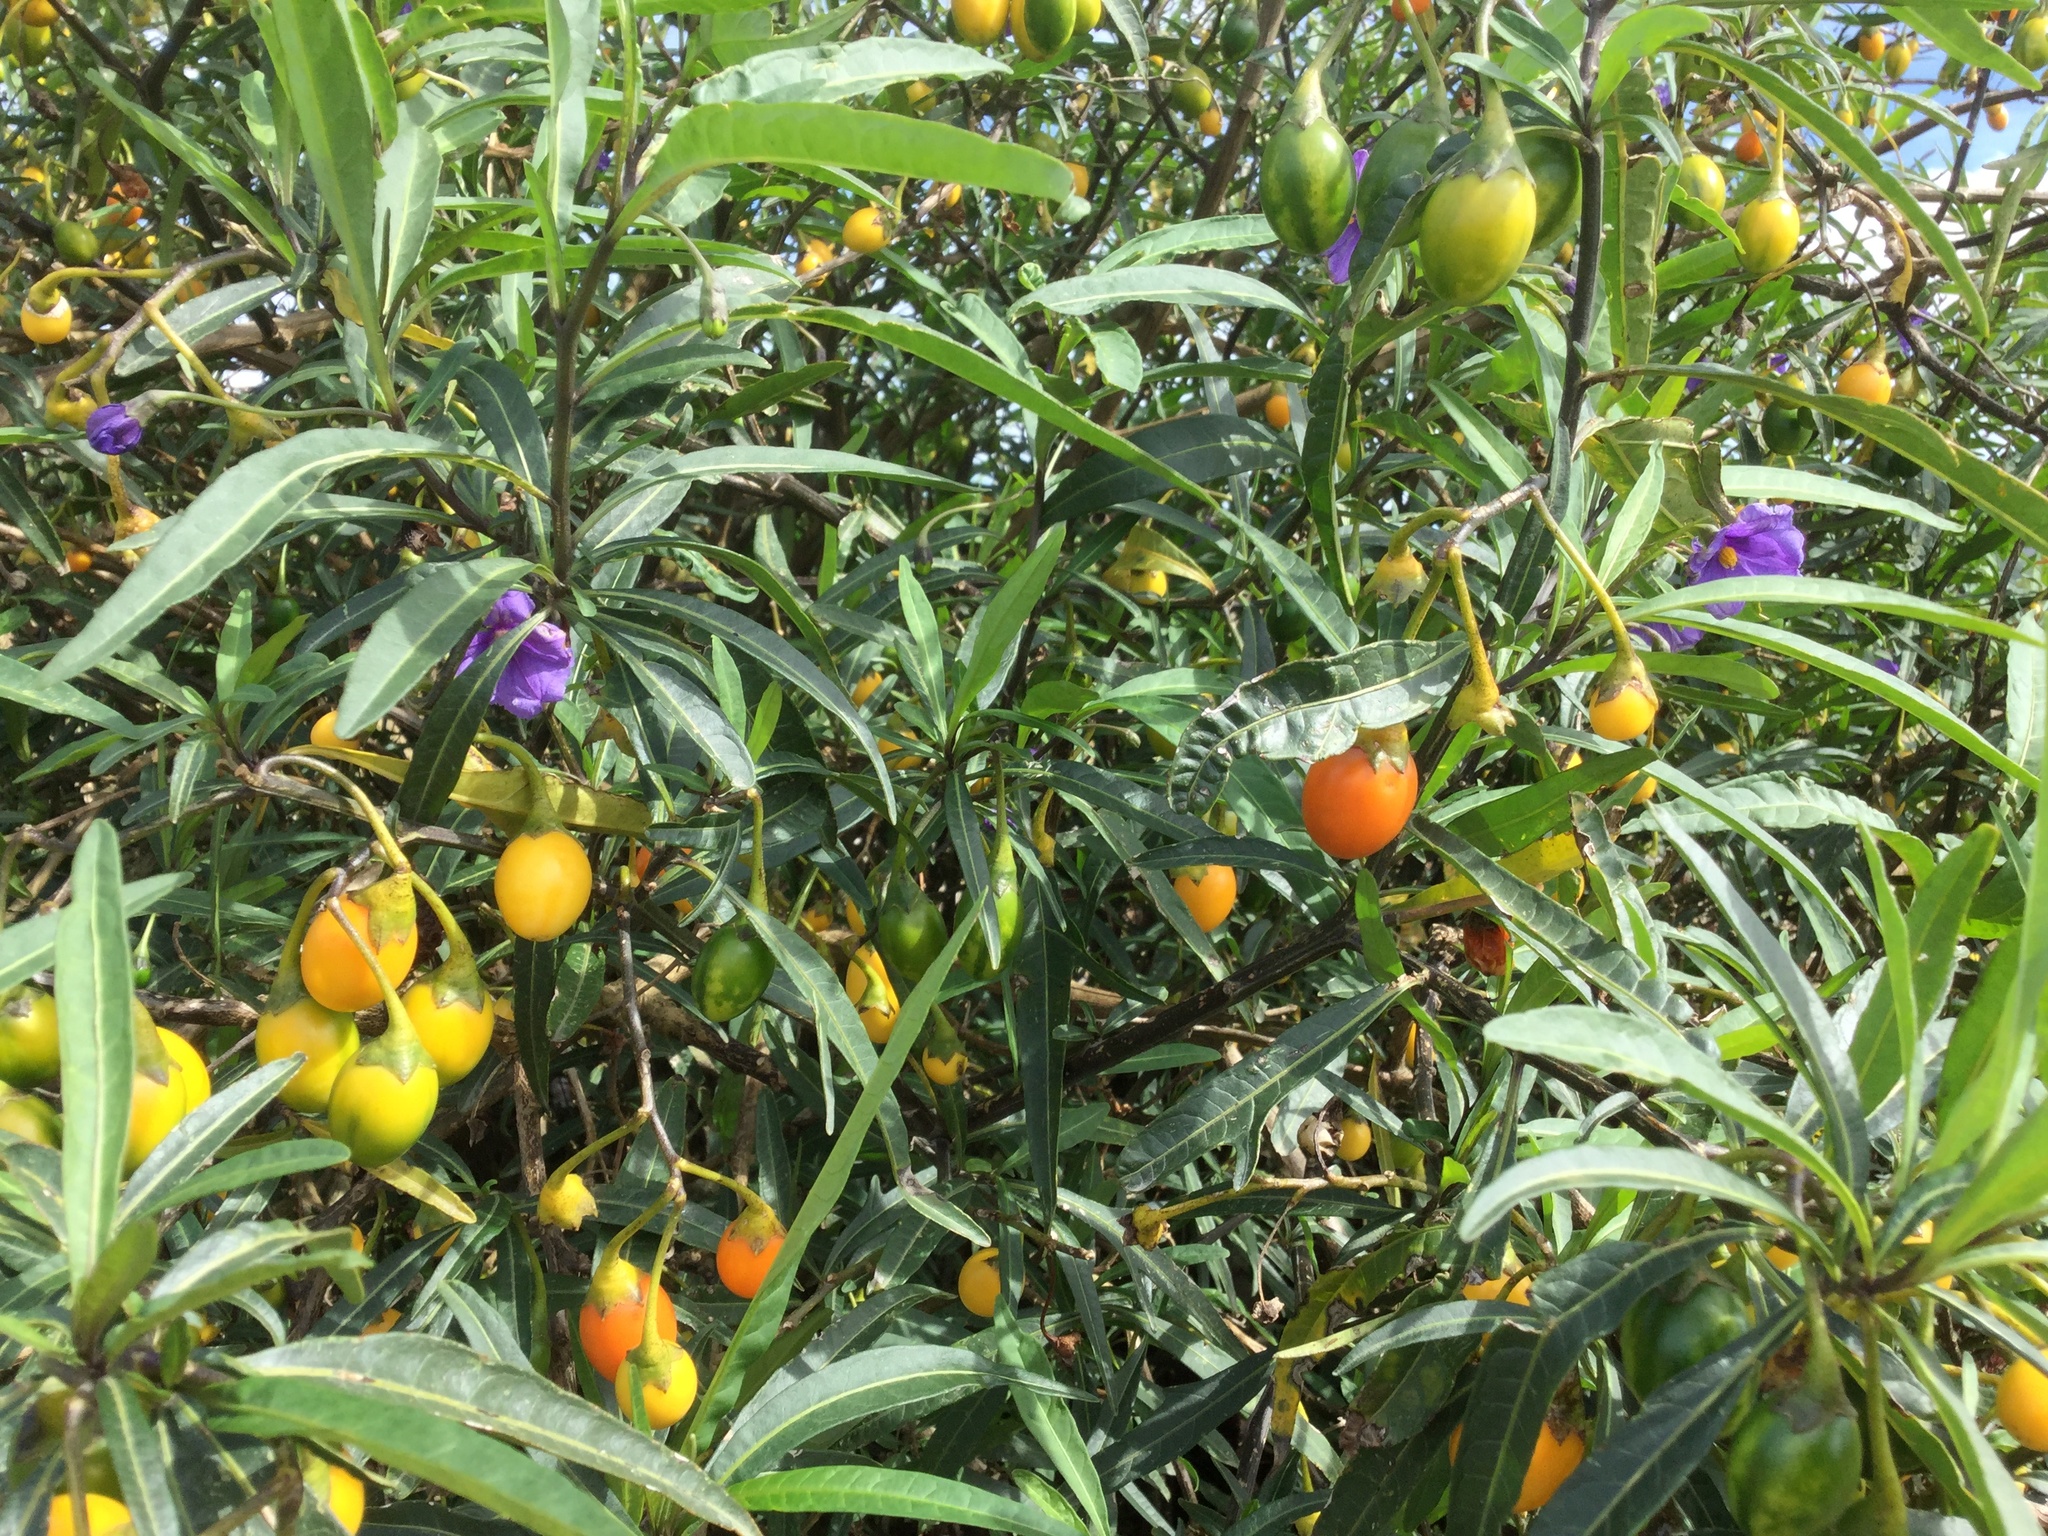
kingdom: Plantae
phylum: Tracheophyta
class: Magnoliopsida
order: Solanales
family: Solanaceae
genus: Solanum
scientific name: Solanum laciniatum
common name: Kangaroo-apple
